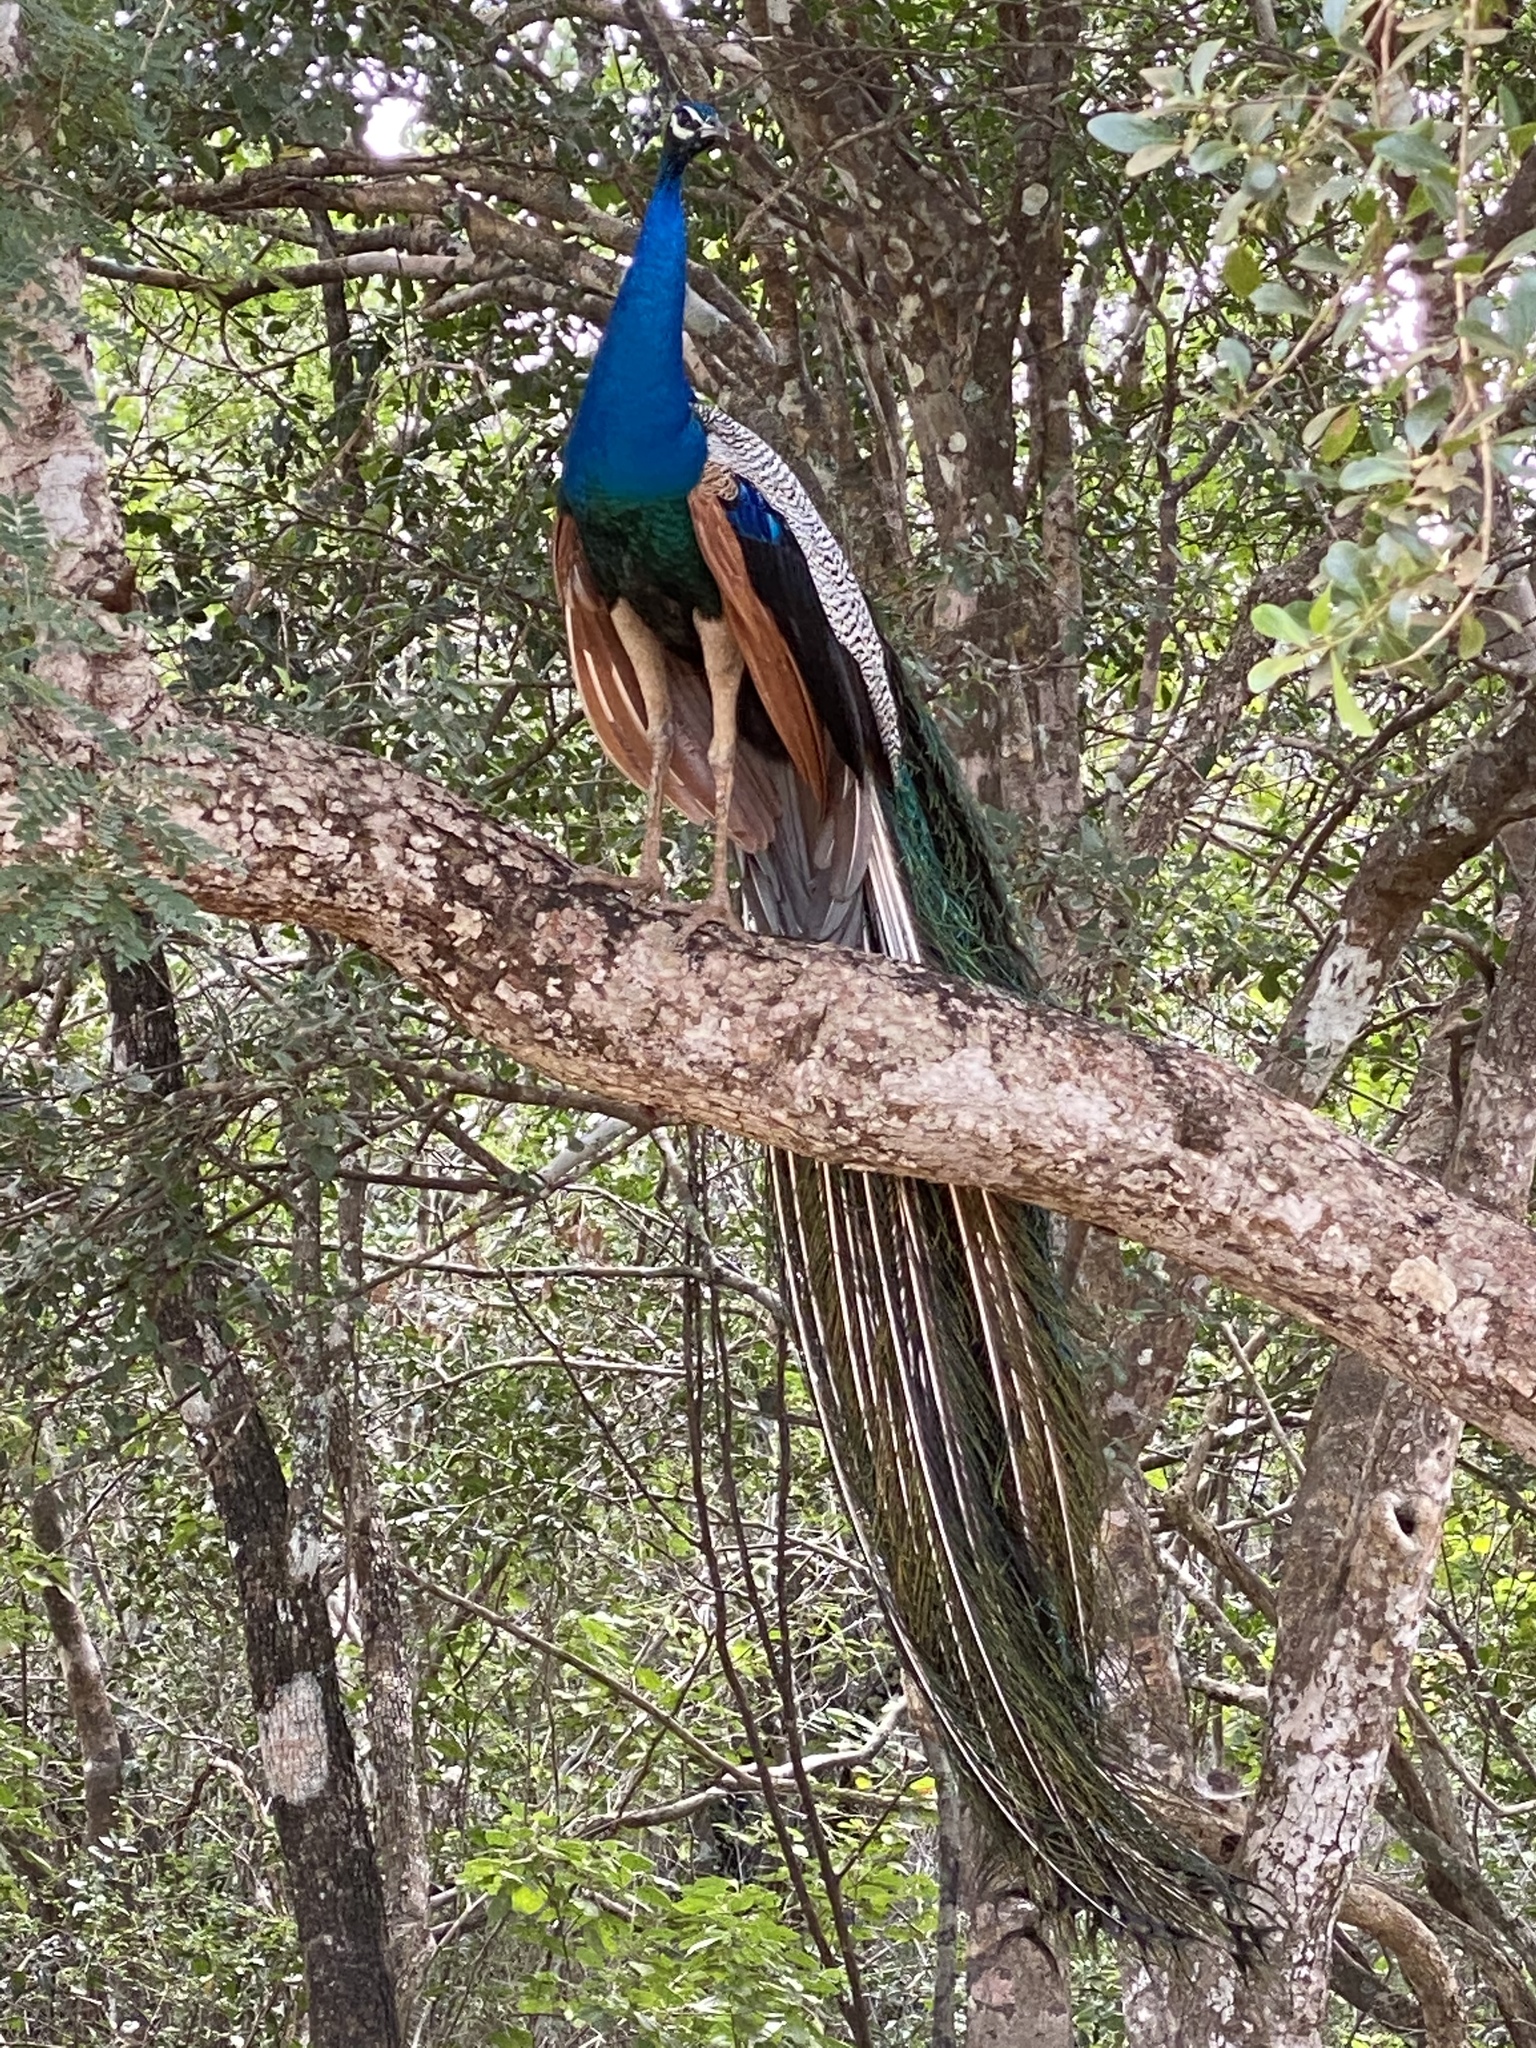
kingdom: Animalia
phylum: Chordata
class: Aves
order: Galliformes
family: Phasianidae
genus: Pavo
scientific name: Pavo cristatus
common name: Indian peafowl
